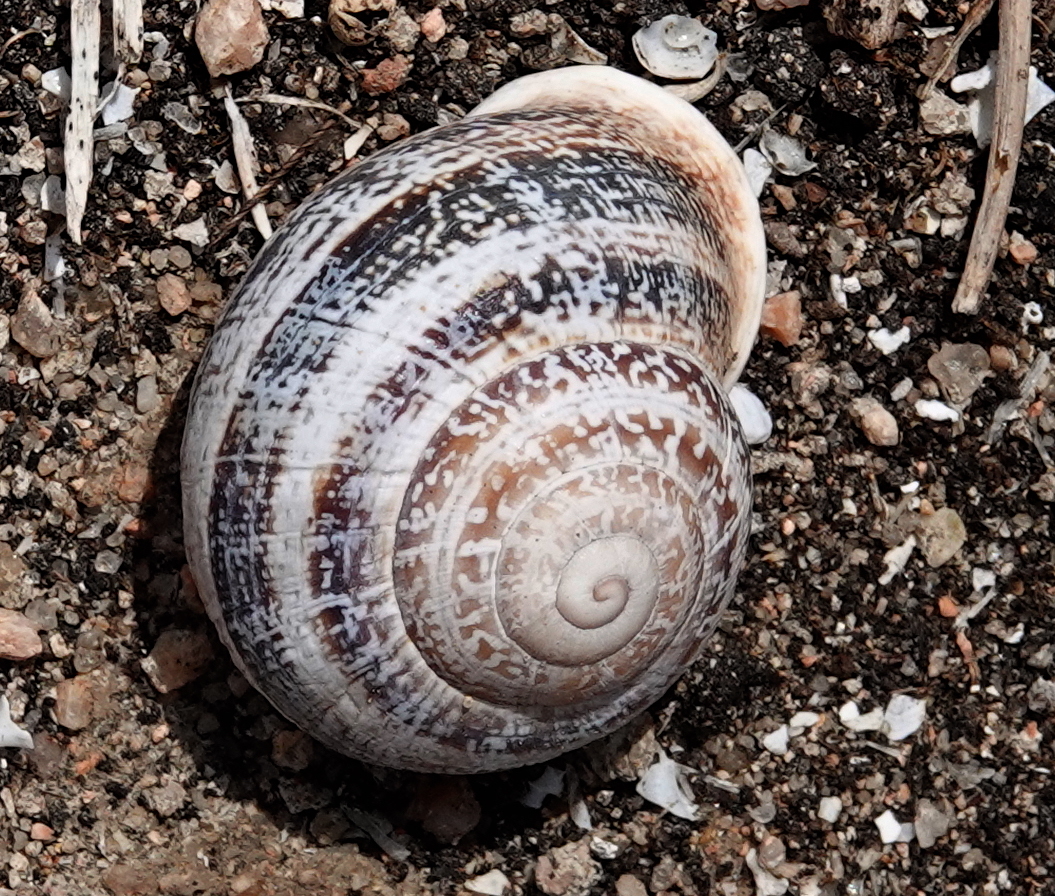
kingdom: Animalia
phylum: Mollusca
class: Gastropoda
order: Stylommatophora
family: Helicidae
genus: Otala
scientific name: Otala lactea
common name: Milk snail
